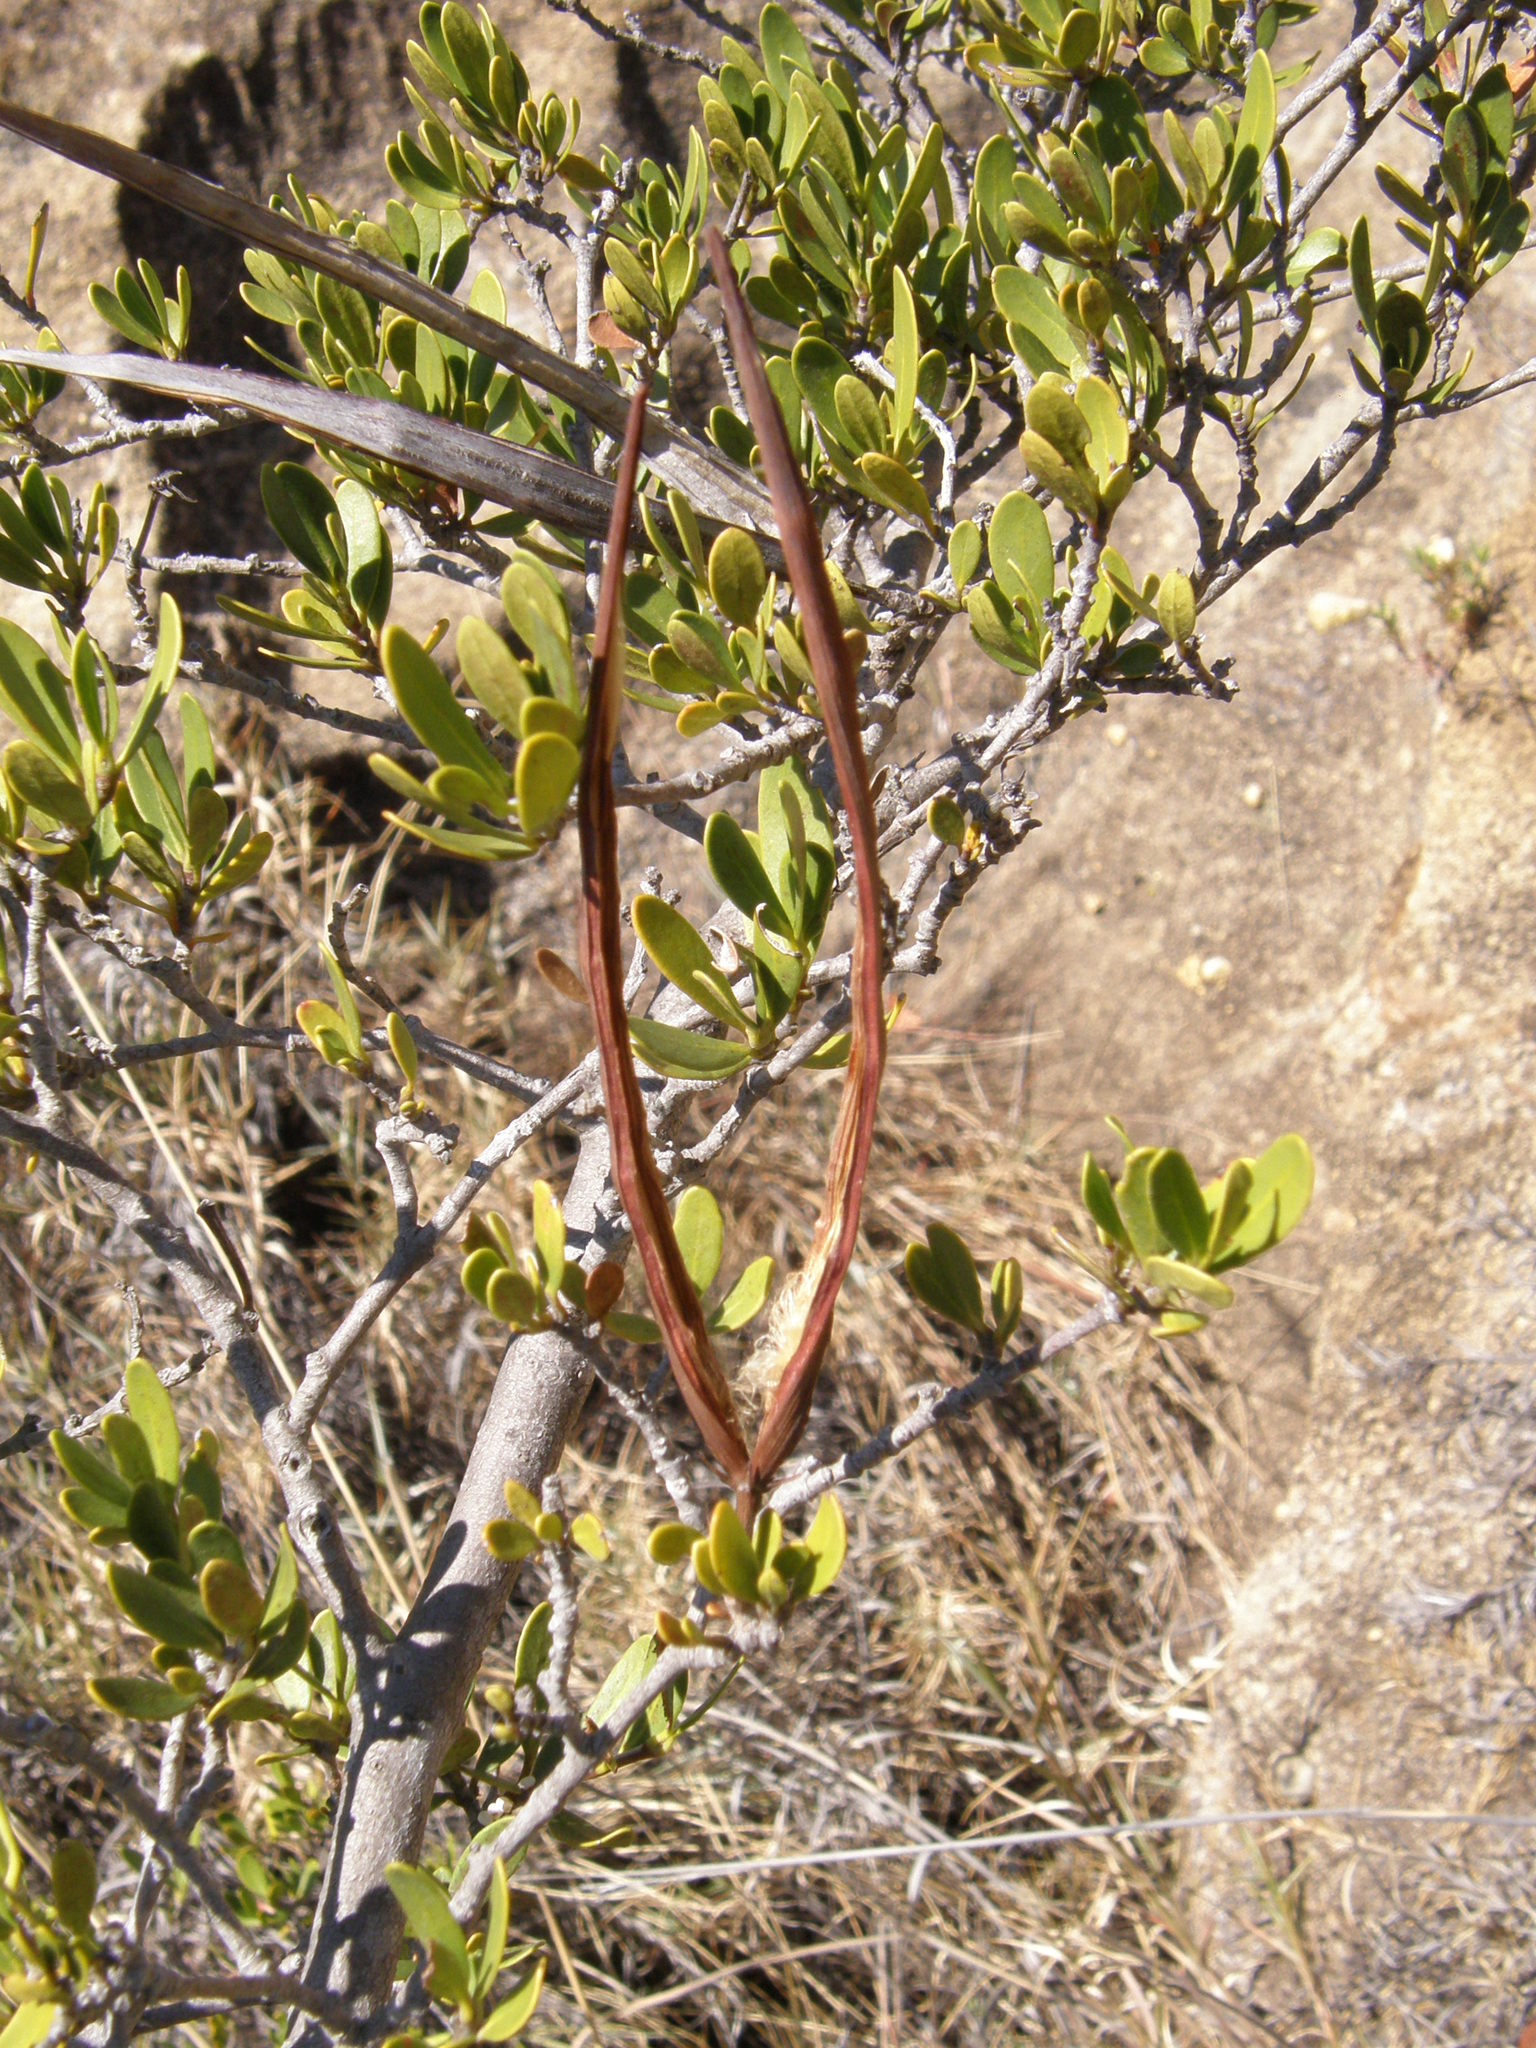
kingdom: Plantae
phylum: Tracheophyta
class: Magnoliopsida
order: Gentianales
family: Apocynaceae
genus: Mascarenhasia
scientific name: Mascarenhasia lisianthiflora
